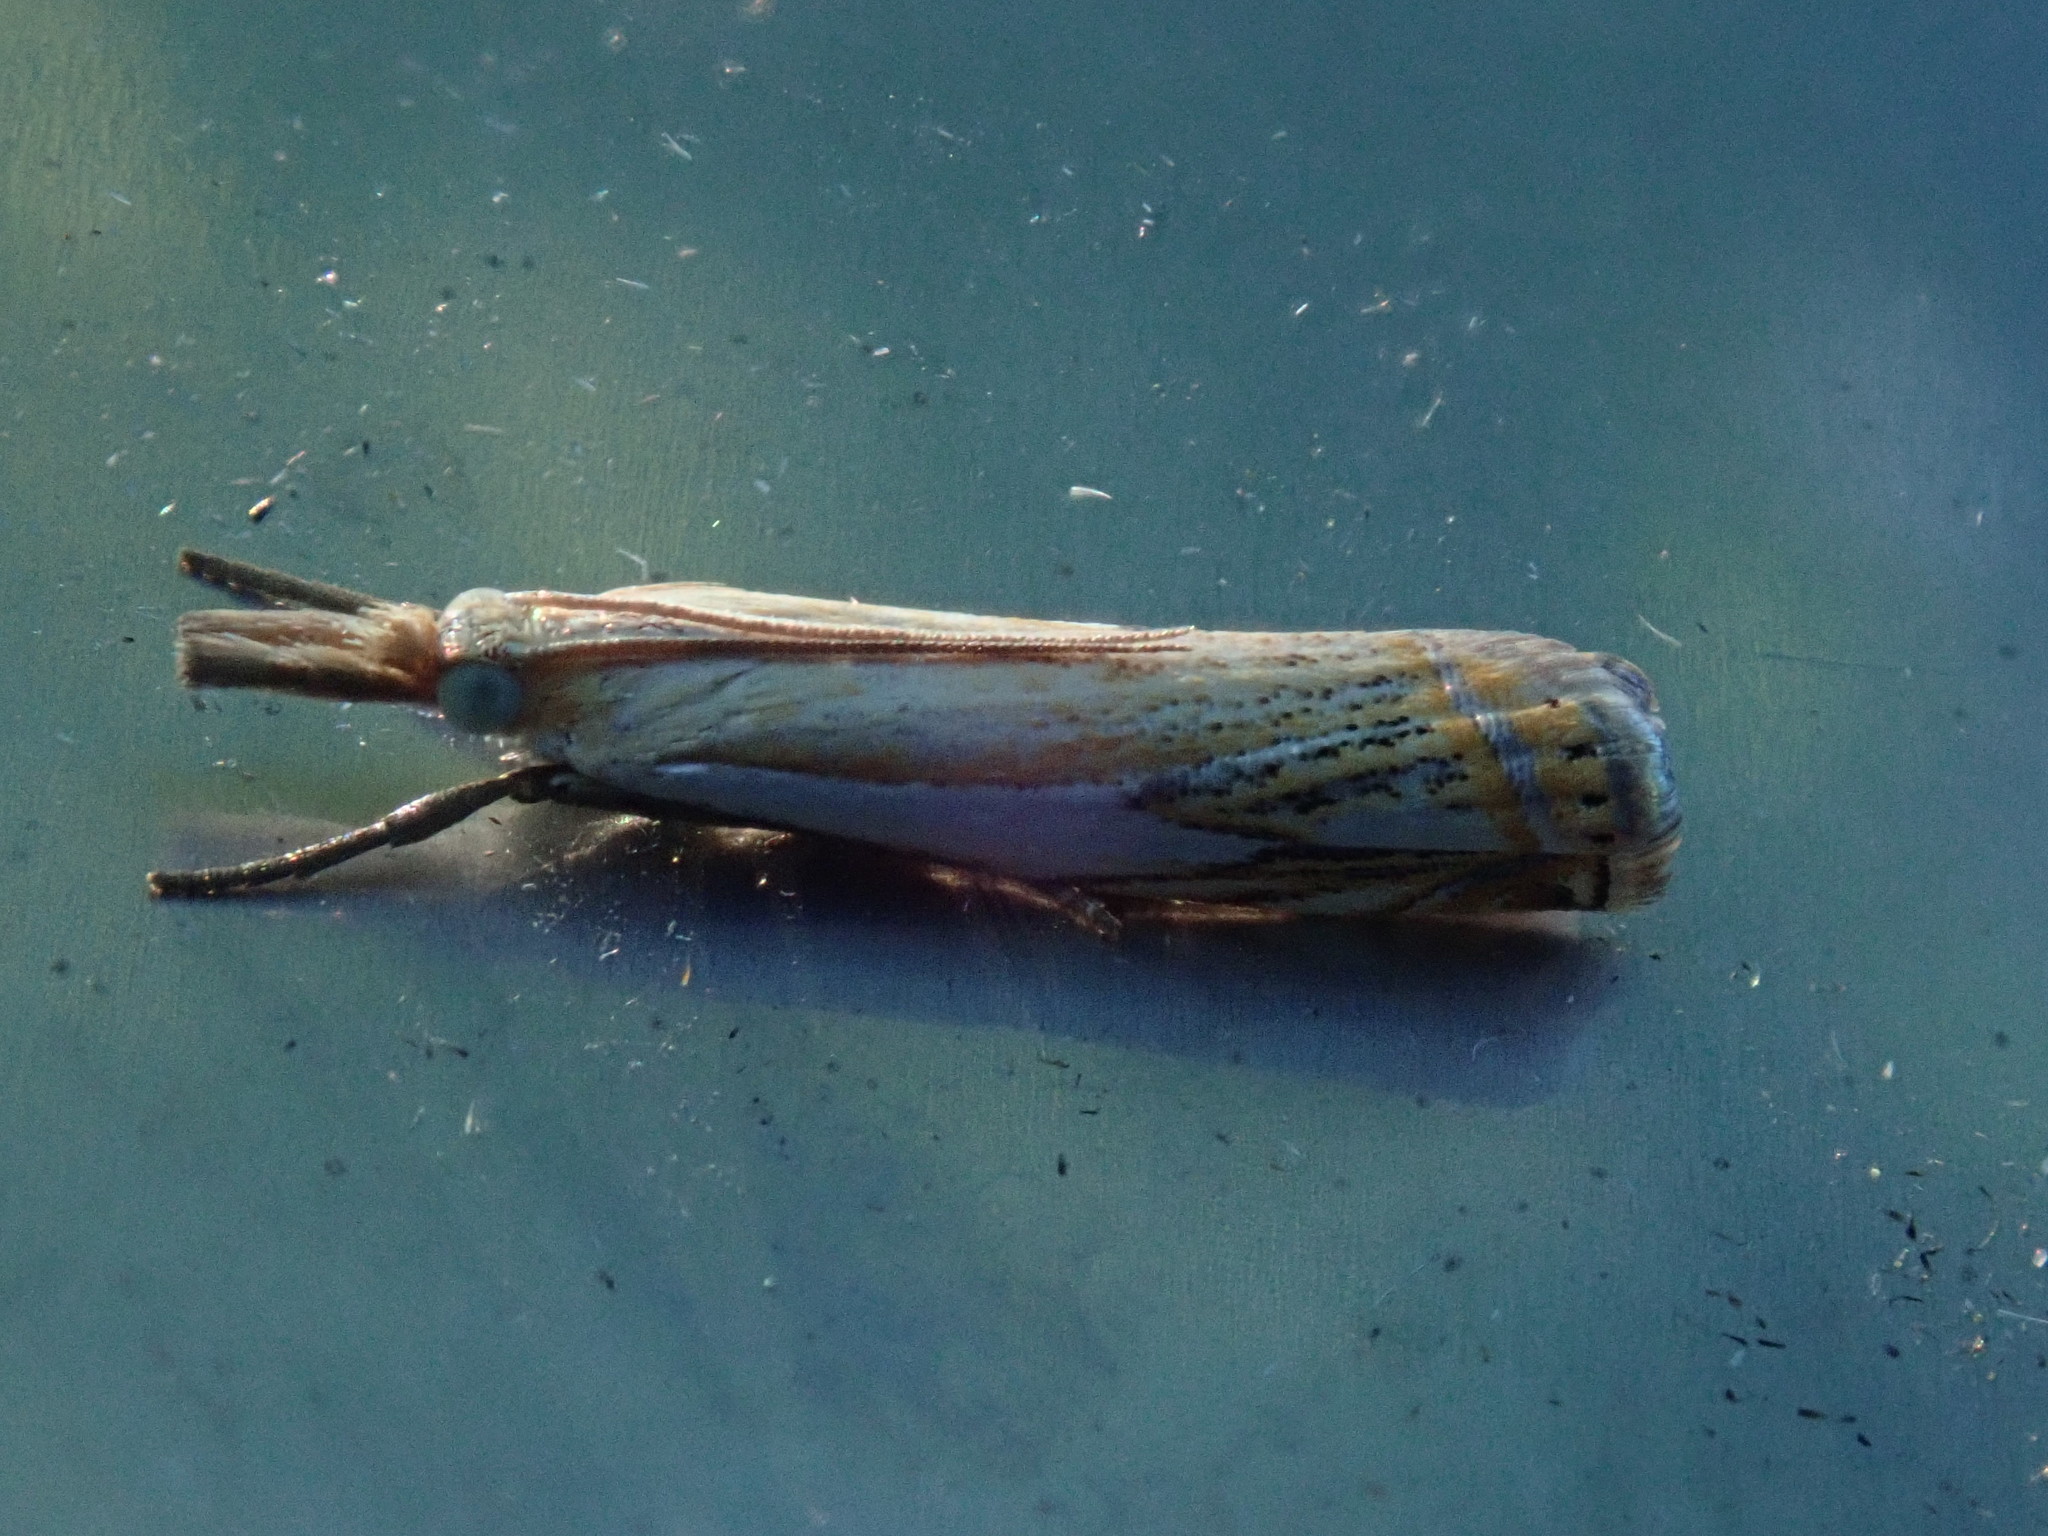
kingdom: Animalia
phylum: Arthropoda
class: Insecta
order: Lepidoptera
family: Crambidae
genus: Crambus
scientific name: Crambus agitatellus
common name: Double-banded grass-veneer
